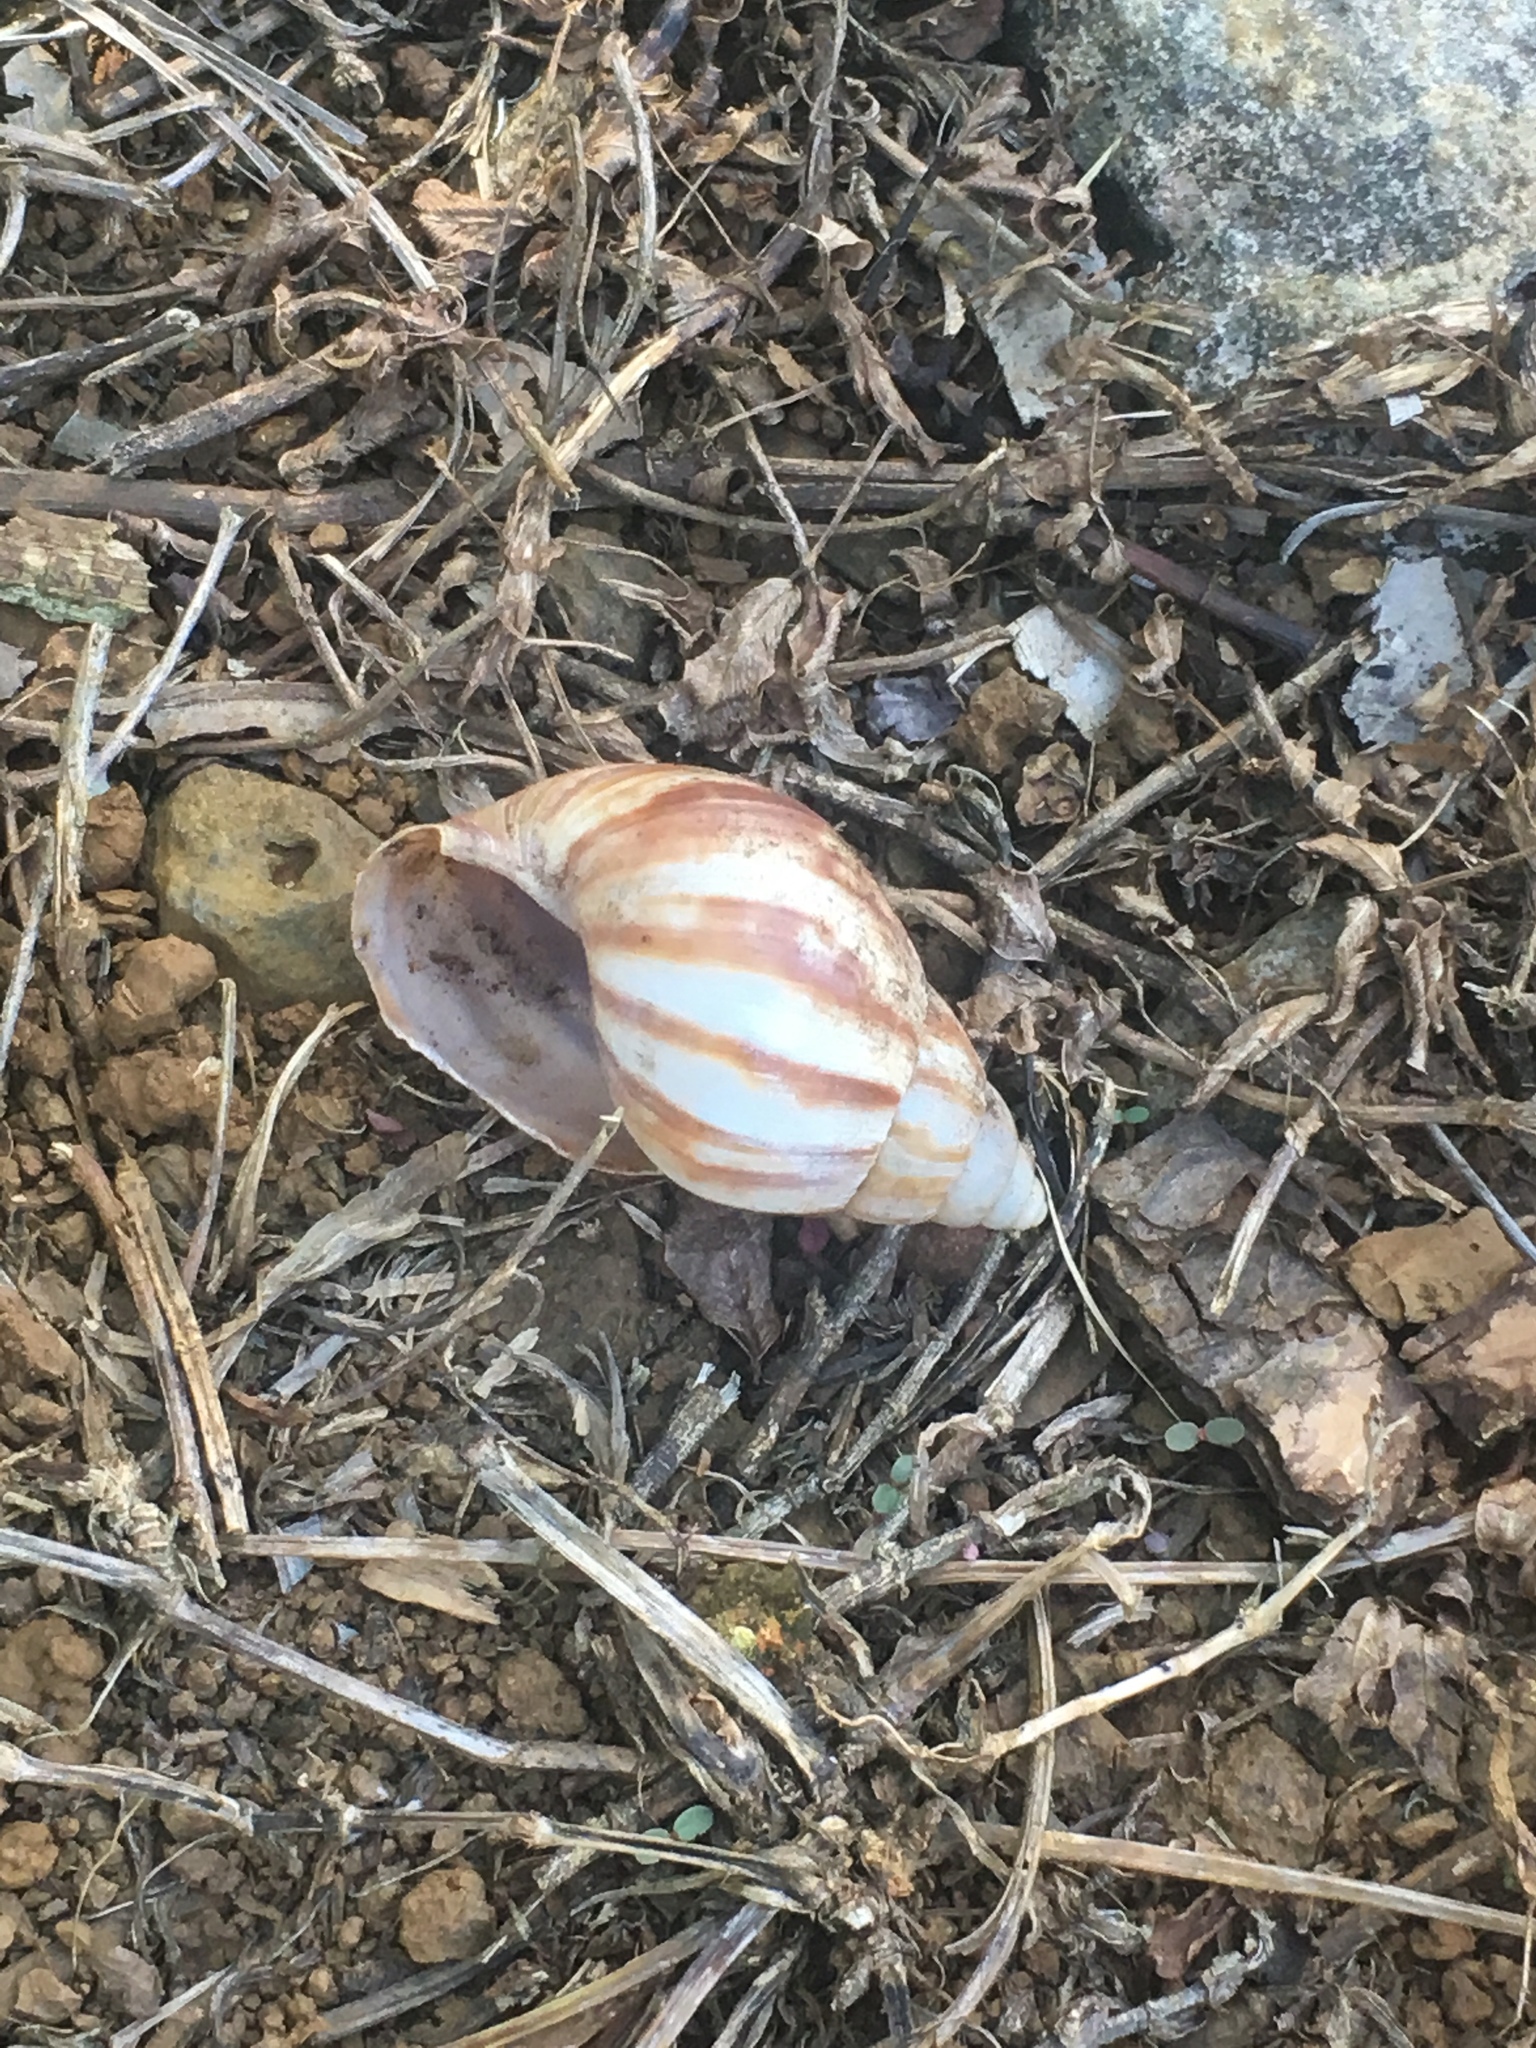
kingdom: Animalia
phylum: Mollusca
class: Gastropoda
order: Stylommatophora
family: Achatinidae
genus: Lissachatina
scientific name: Lissachatina fulica
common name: Giant african snail
